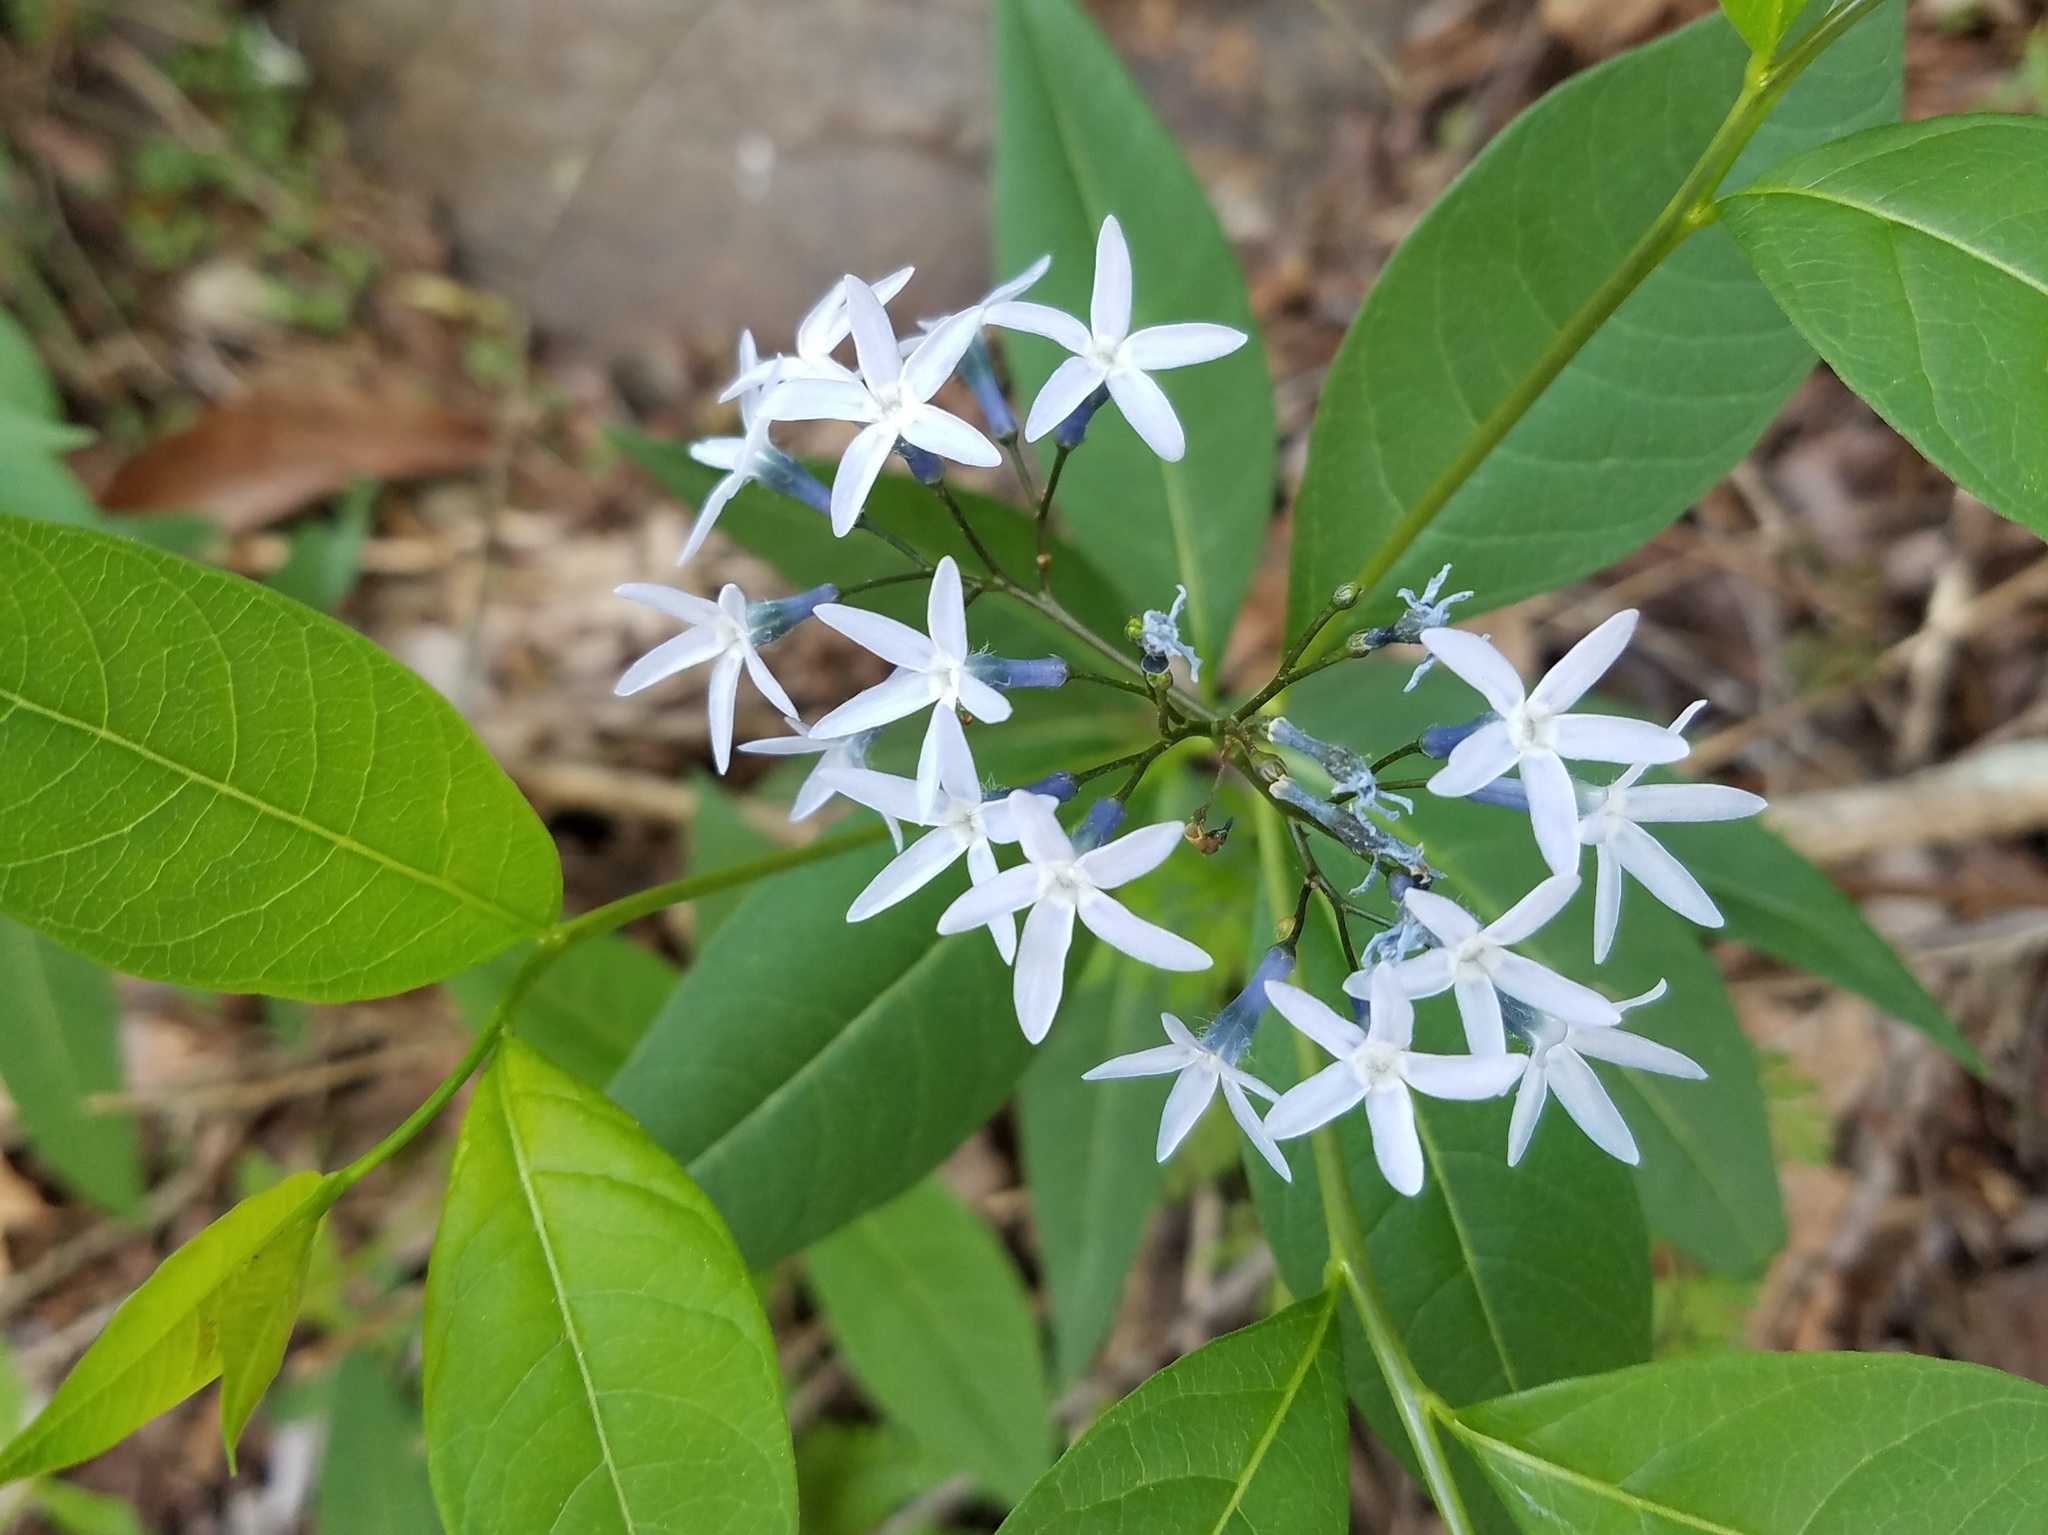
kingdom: Plantae
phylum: Tracheophyta
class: Magnoliopsida
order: Gentianales
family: Apocynaceae
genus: Amsonia
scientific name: Amsonia tabernaemontana
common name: Texas-star
